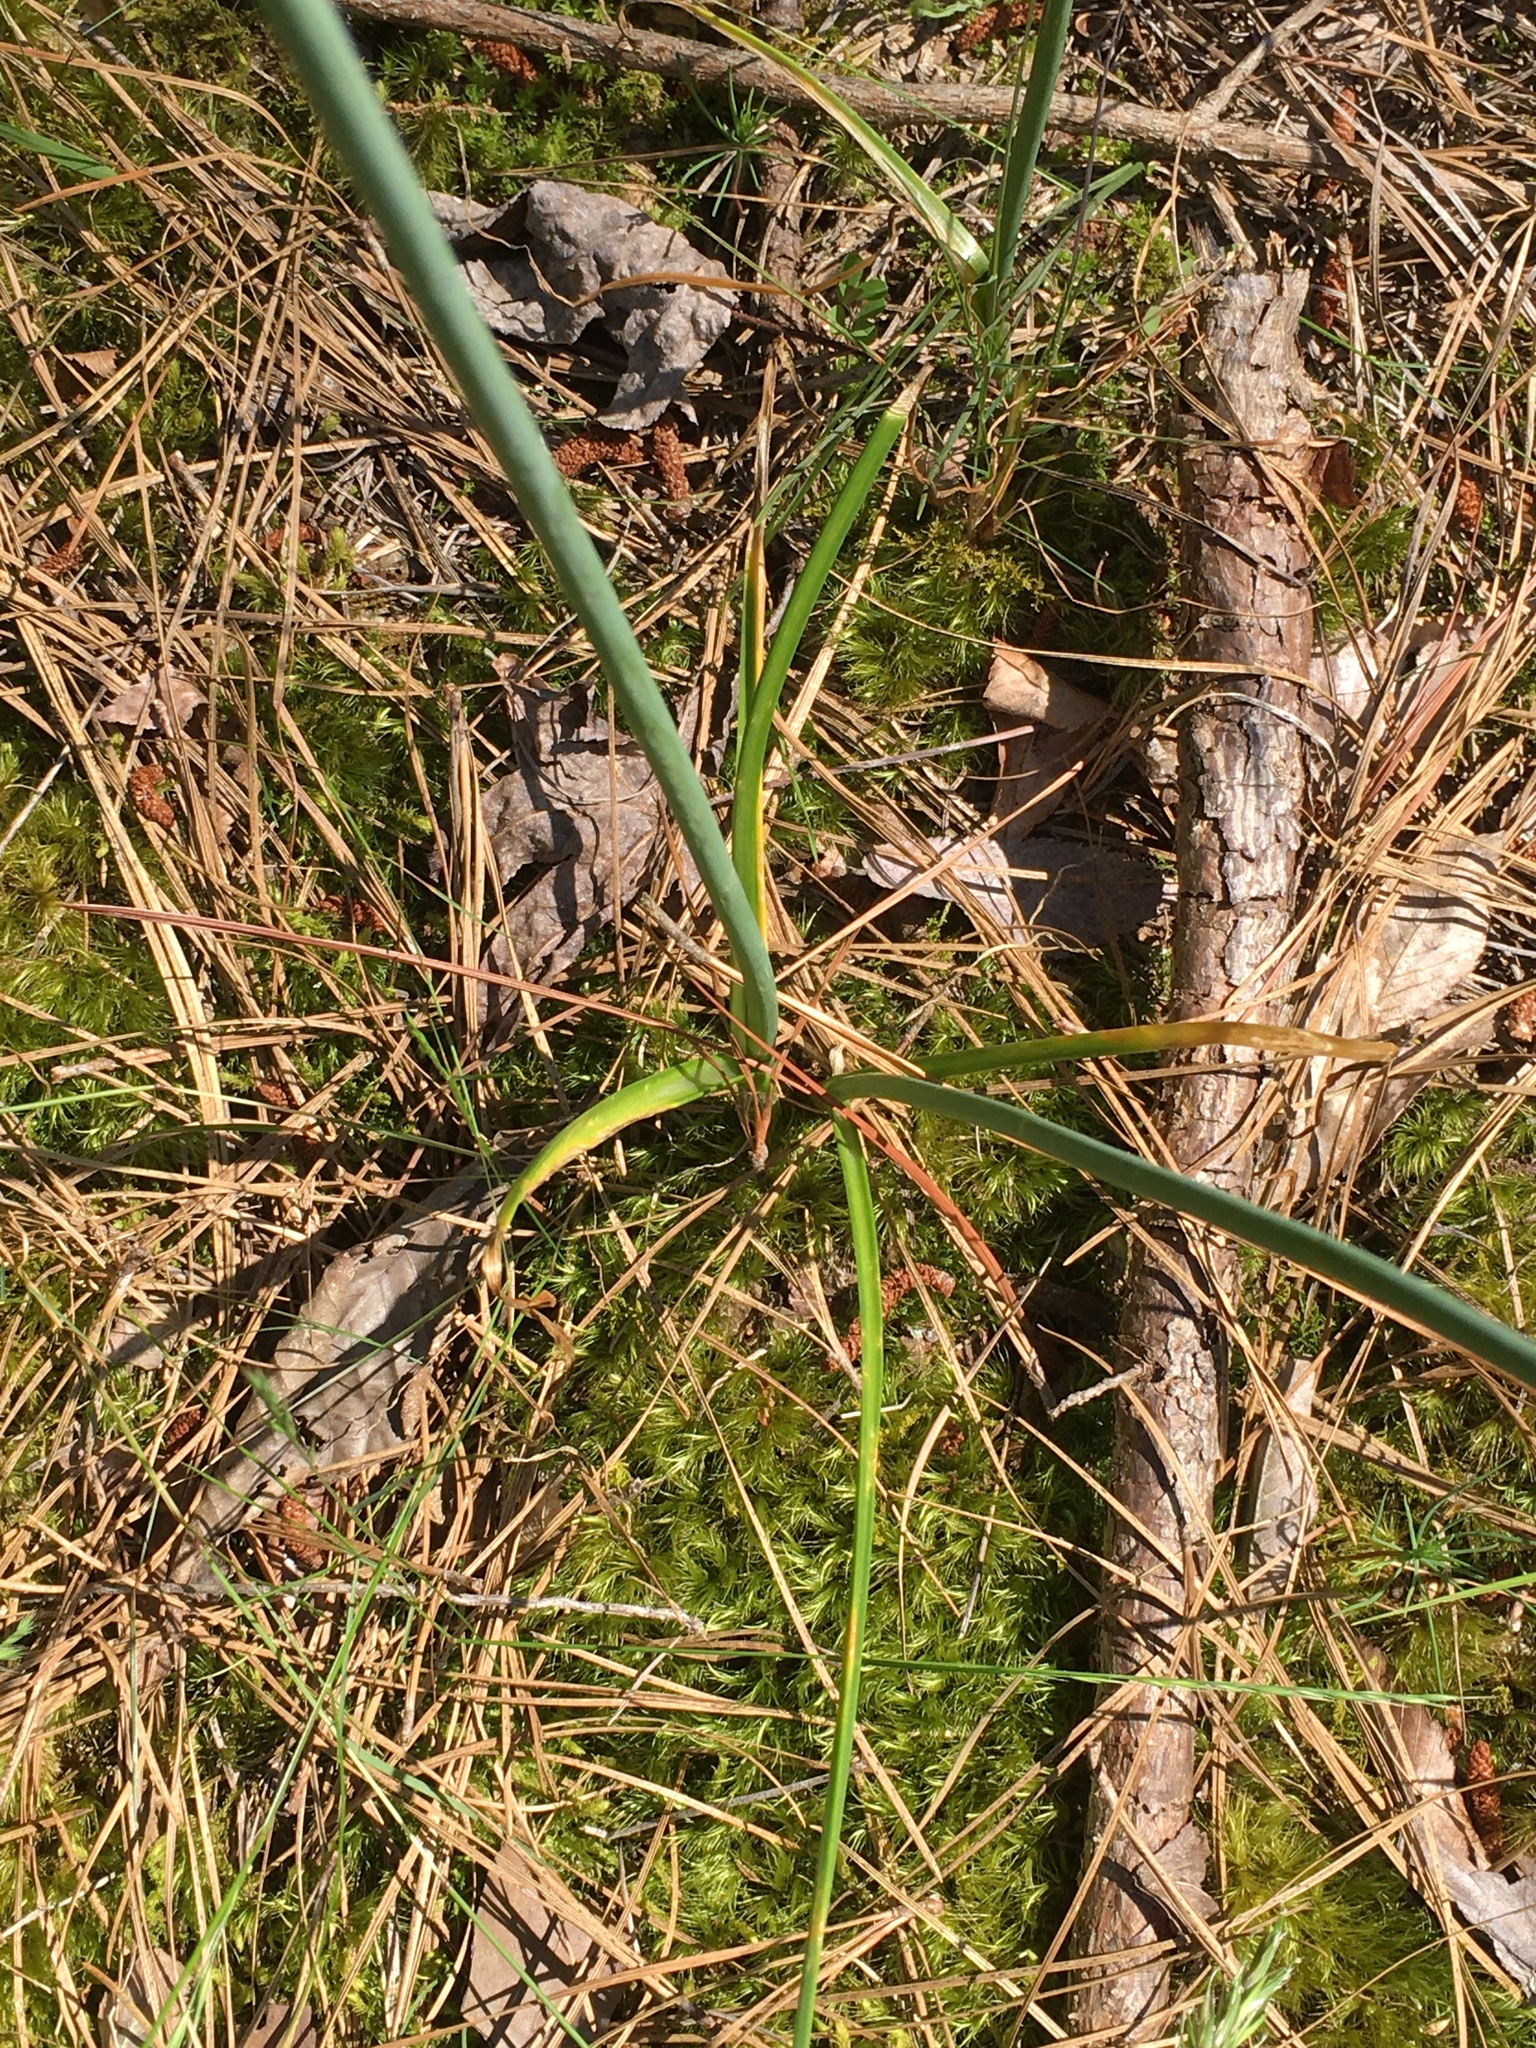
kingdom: Plantae
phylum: Tracheophyta
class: Liliopsida
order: Asparagales
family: Amaryllidaceae
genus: Allium
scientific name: Allium canadense
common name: Meadow garlic
